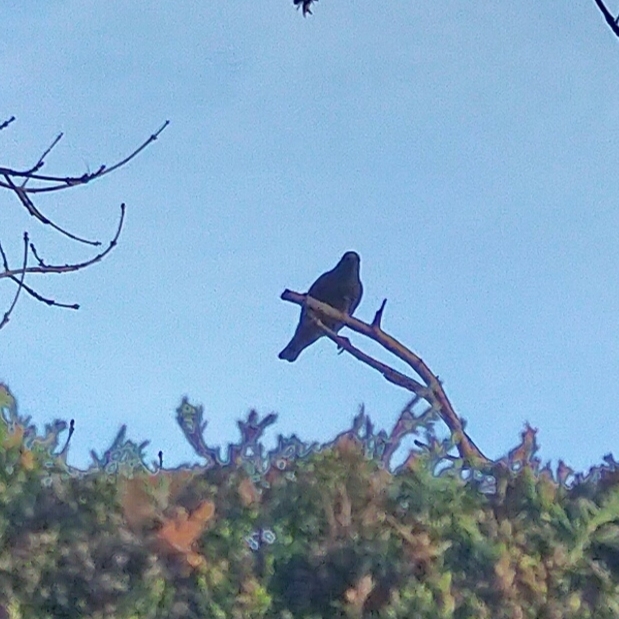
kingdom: Animalia
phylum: Chordata
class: Aves
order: Passeriformes
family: Sturnidae
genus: Sturnus
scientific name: Sturnus vulgaris
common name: Common starling
